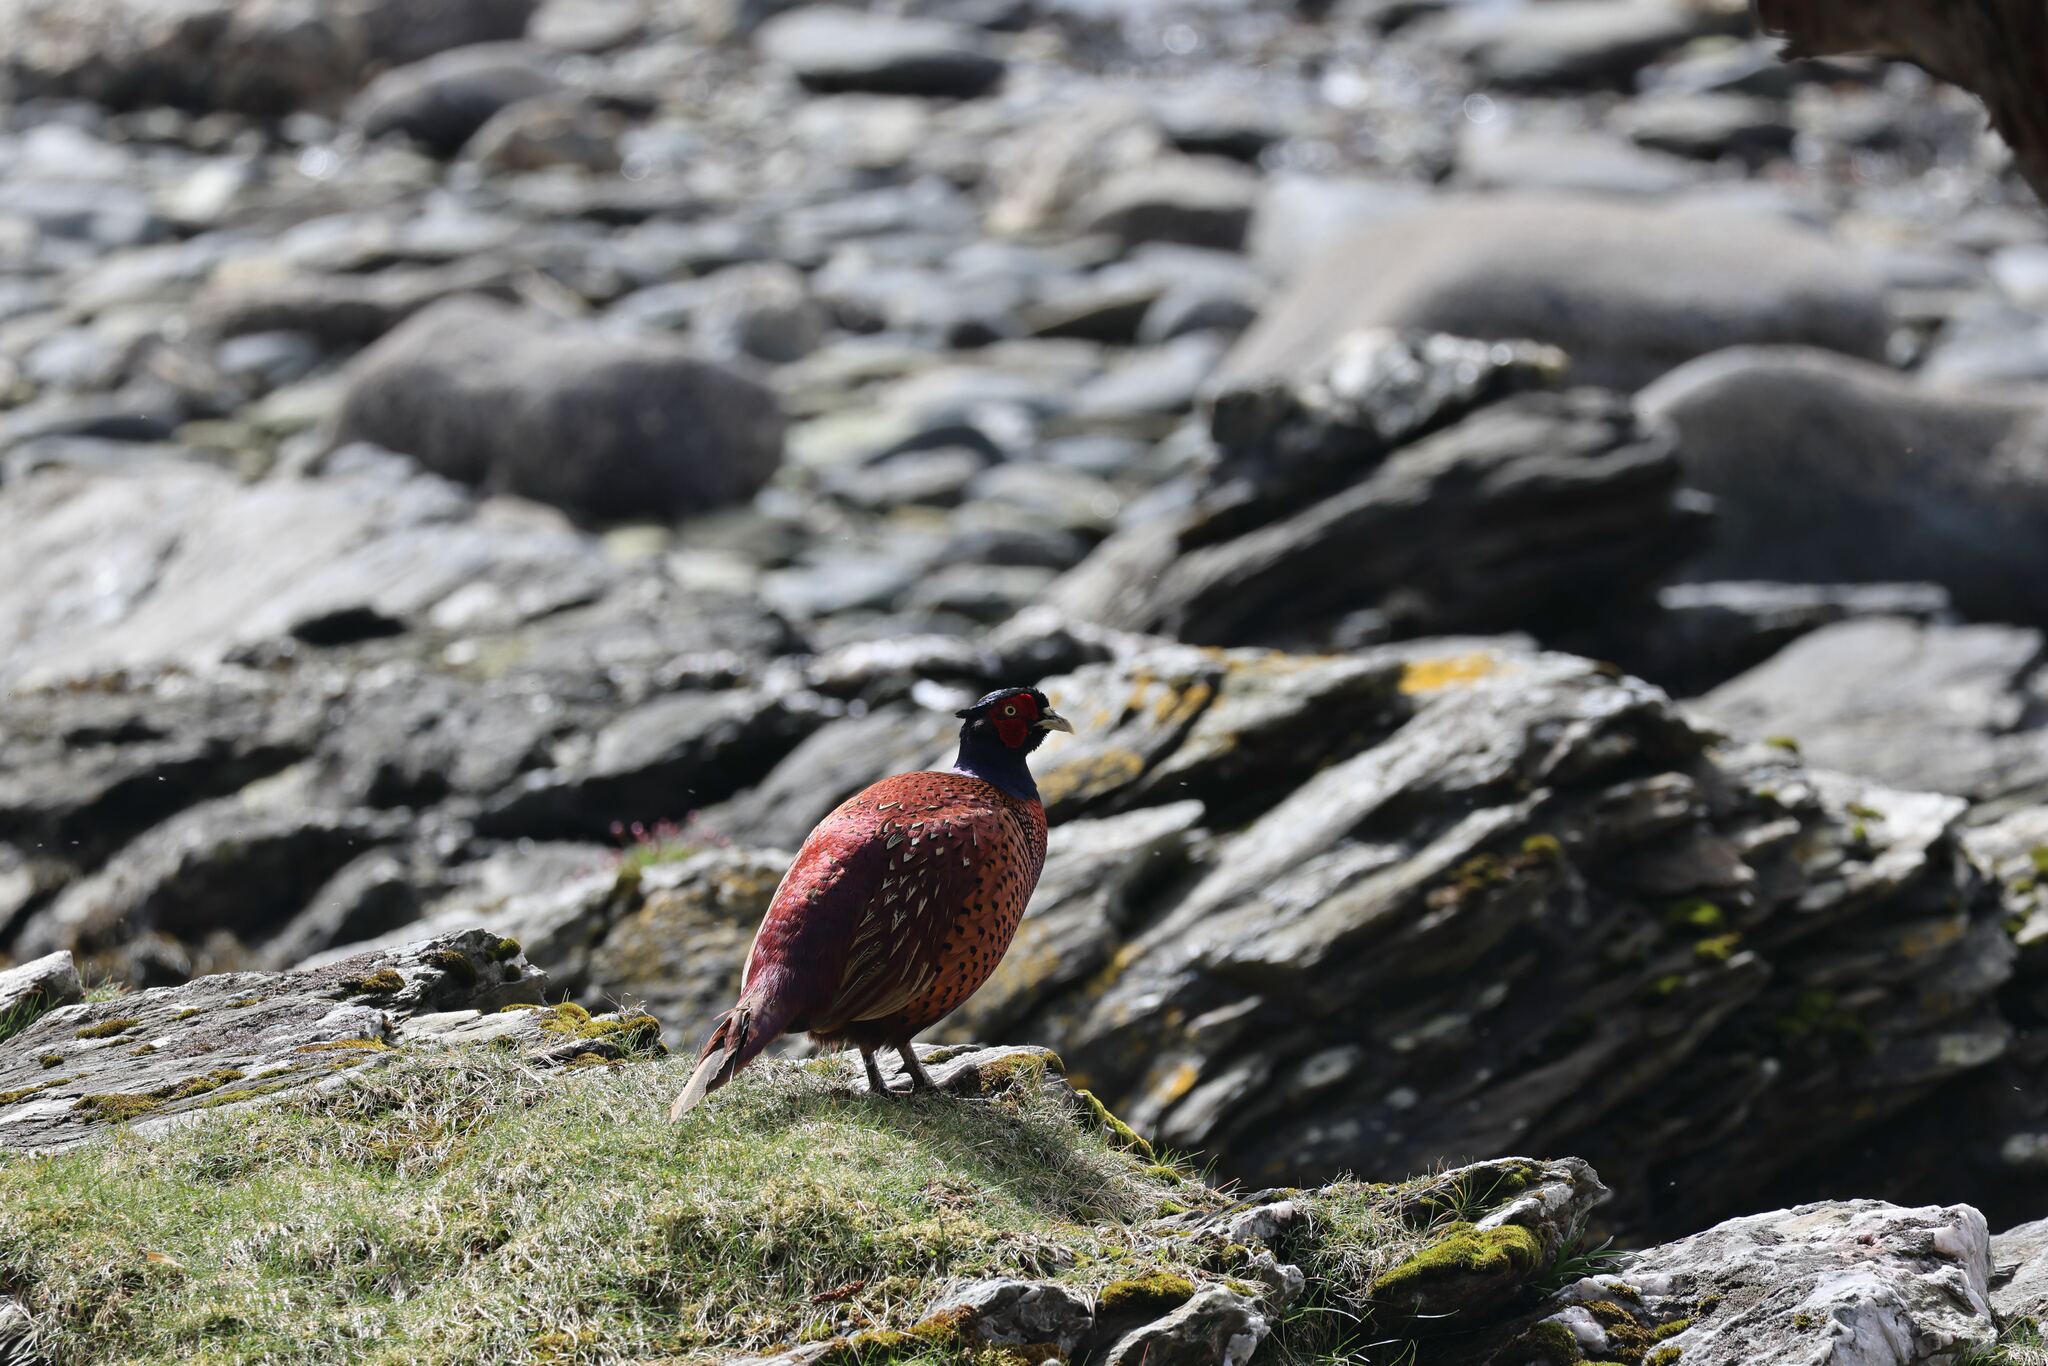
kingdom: Animalia
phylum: Chordata
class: Aves
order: Galliformes
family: Phasianidae
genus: Phasianus
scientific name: Phasianus colchicus
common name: Common pheasant
